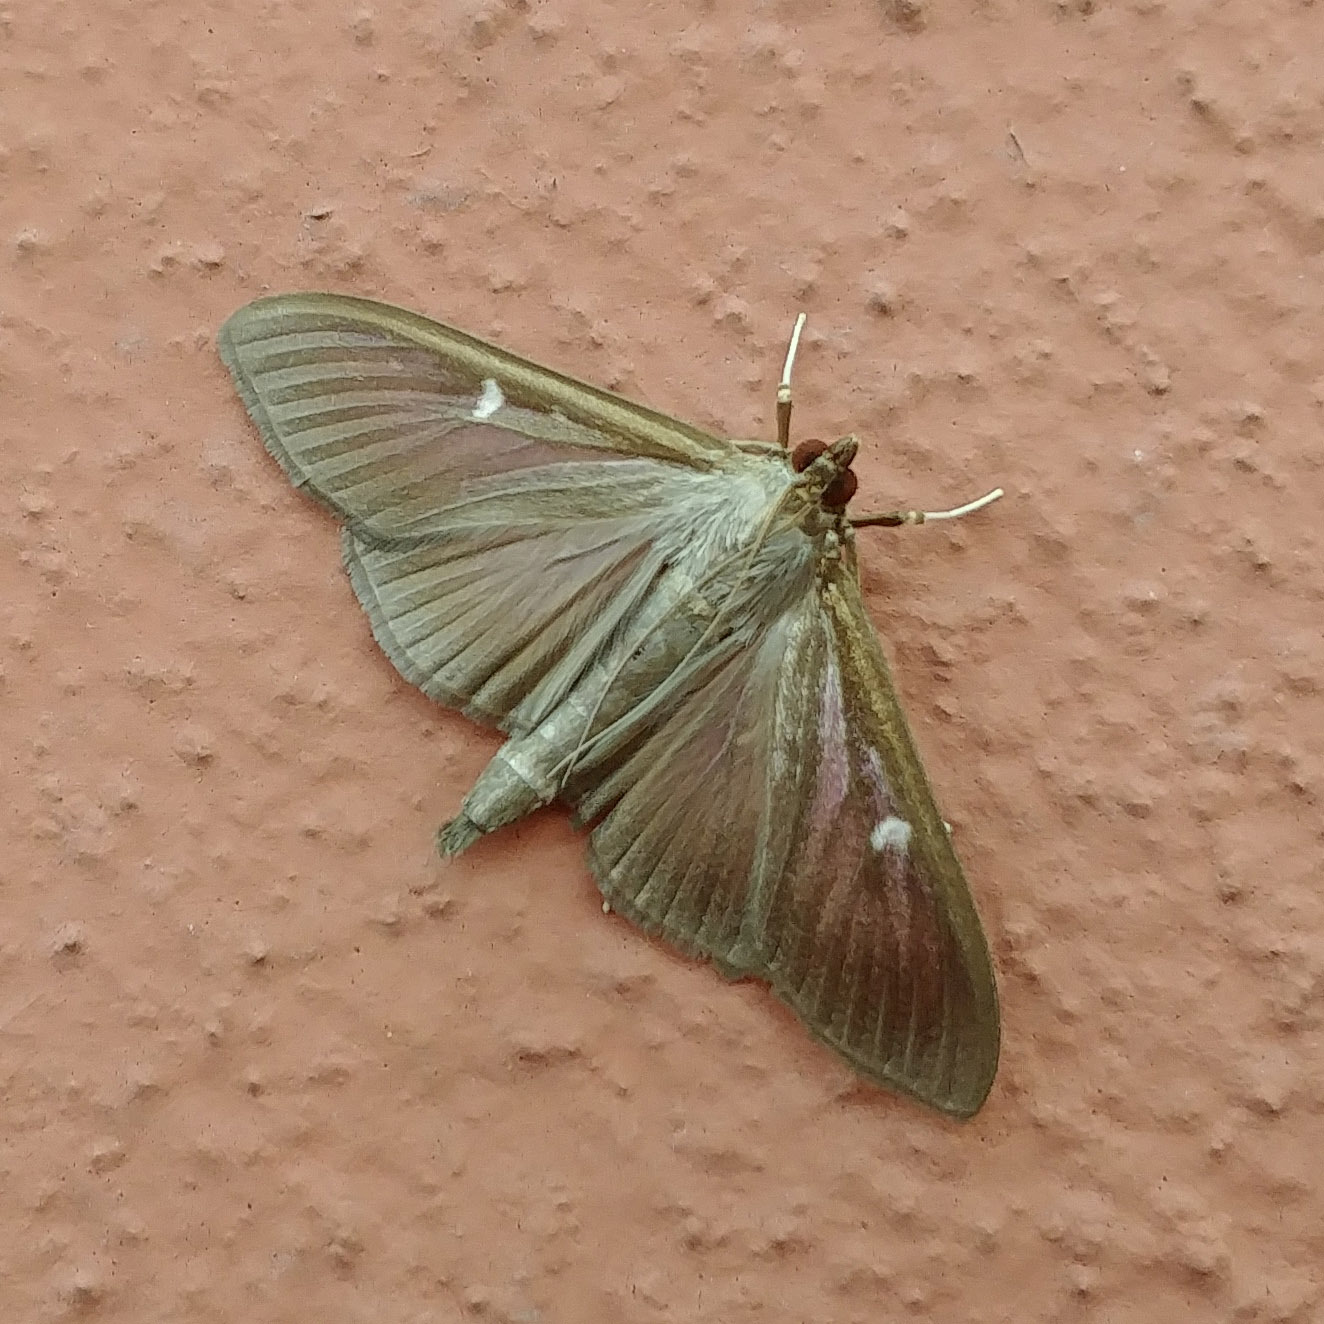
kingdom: Animalia
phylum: Arthropoda
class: Insecta
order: Lepidoptera
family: Crambidae
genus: Cydalima
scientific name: Cydalima perspectalis
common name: Box tree moth
